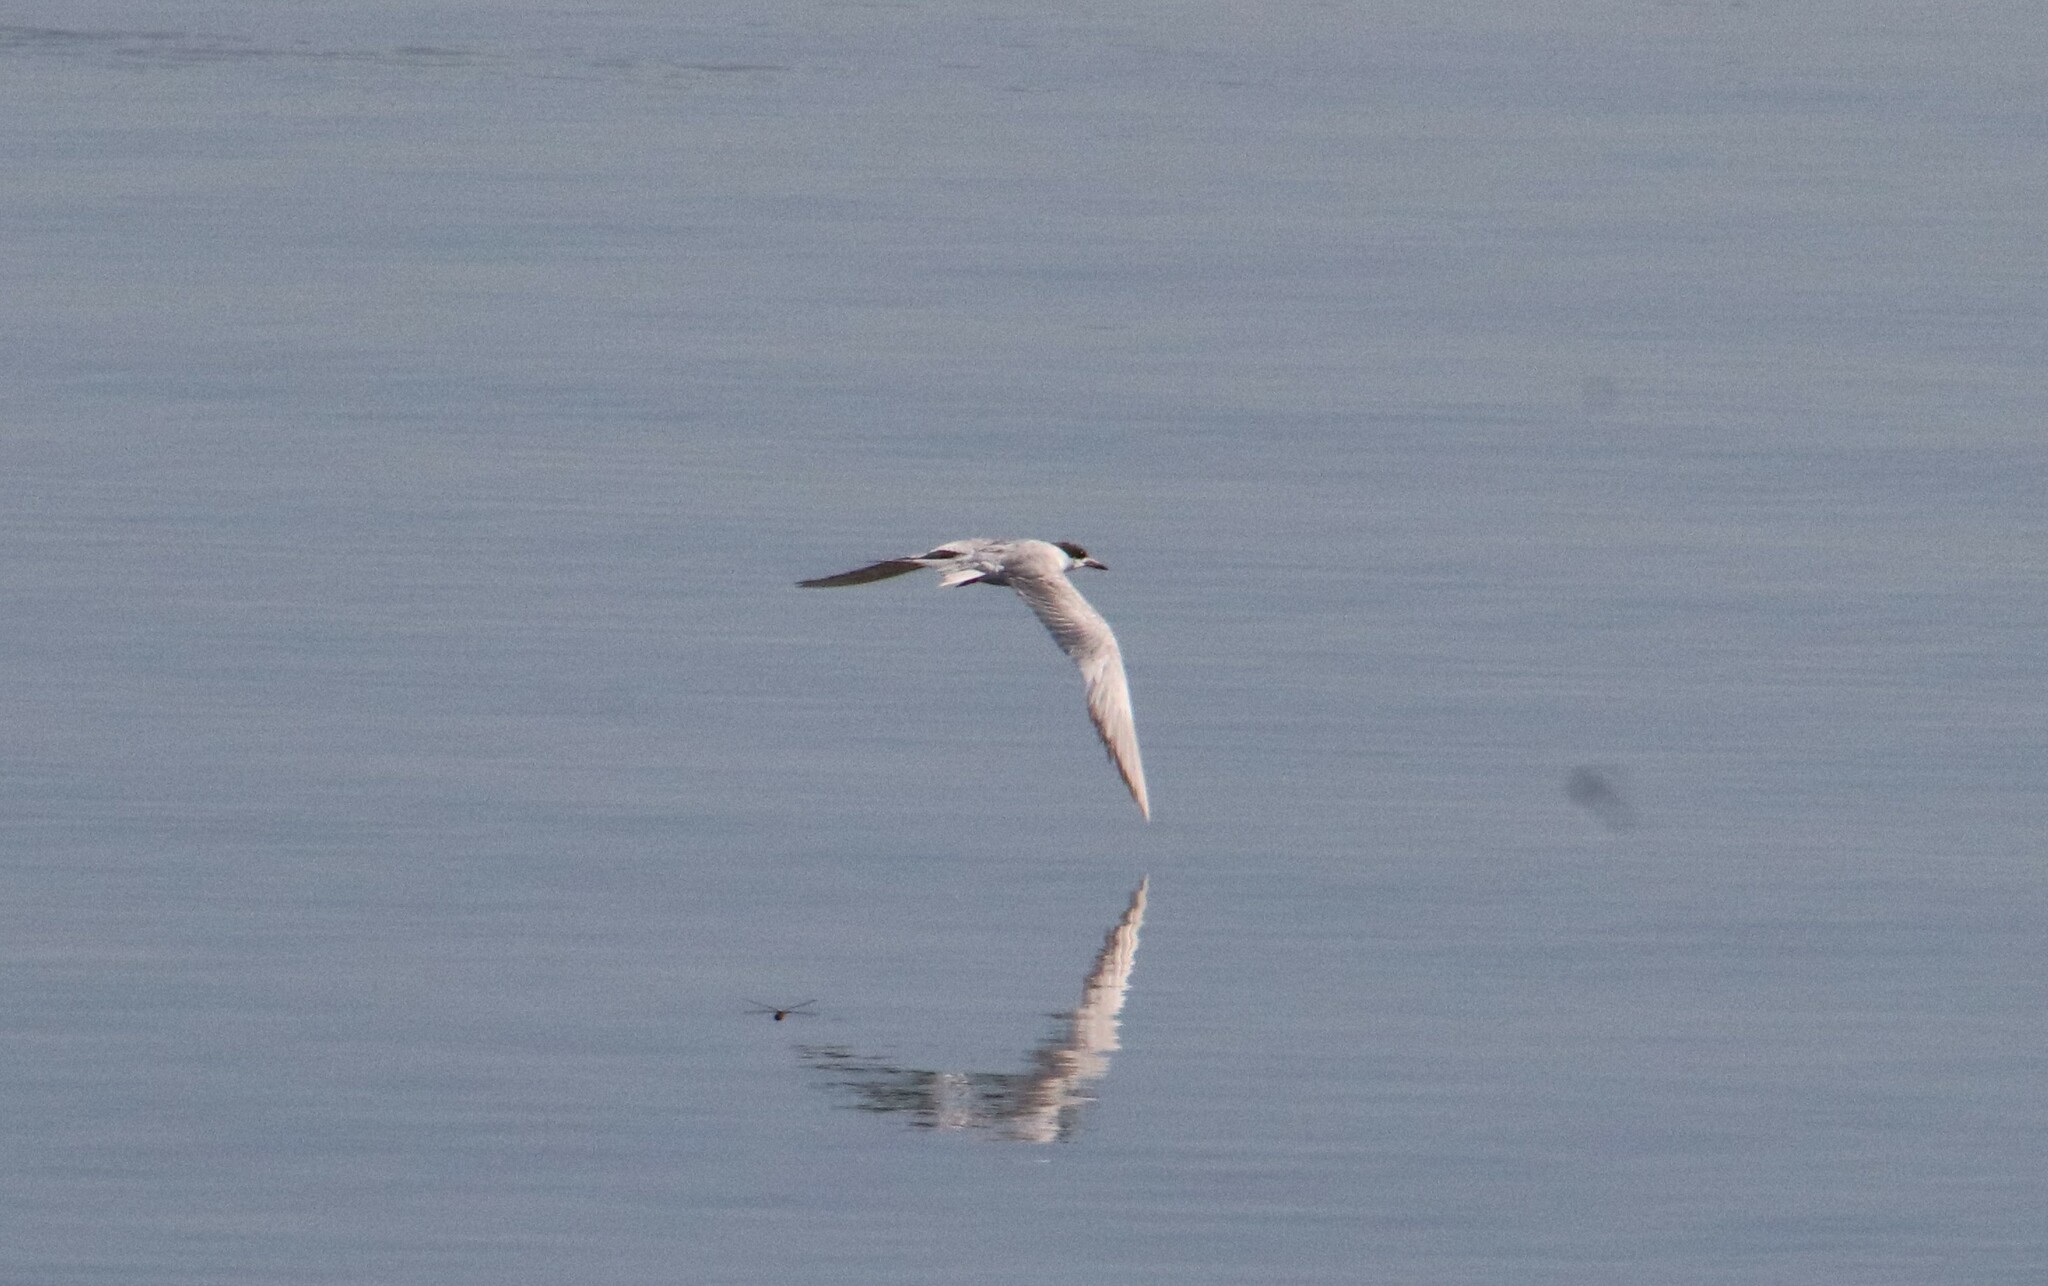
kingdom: Animalia
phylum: Chordata
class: Aves
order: Charadriiformes
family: Laridae
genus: Sterna
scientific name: Sterna forsteri
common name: Forster's tern
